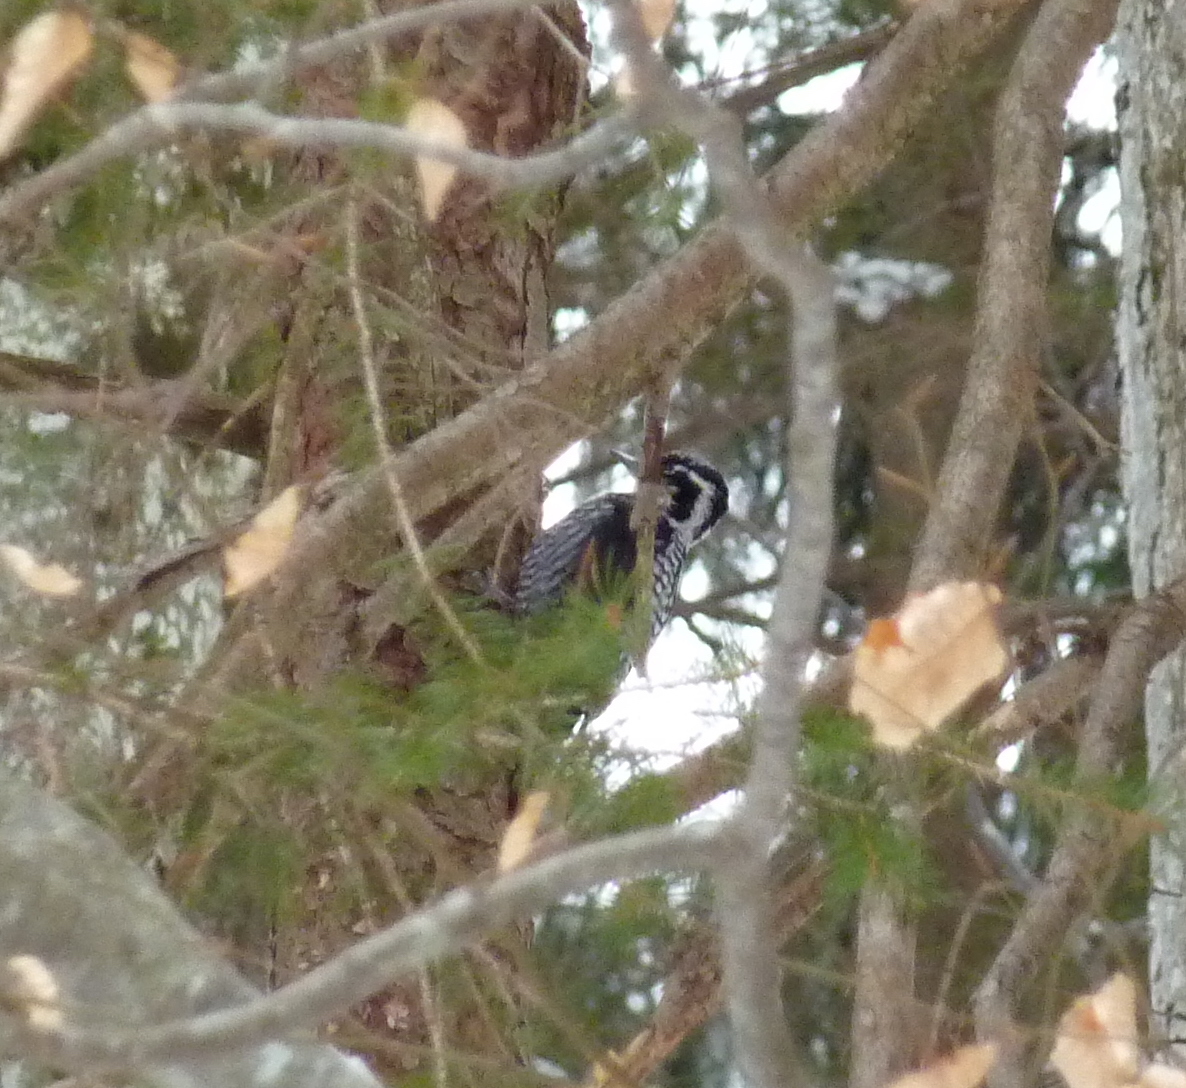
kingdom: Animalia
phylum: Chordata
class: Aves
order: Piciformes
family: Picidae
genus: Picoides
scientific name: Picoides tridactylus
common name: Eurasian three-toed woodpecker
